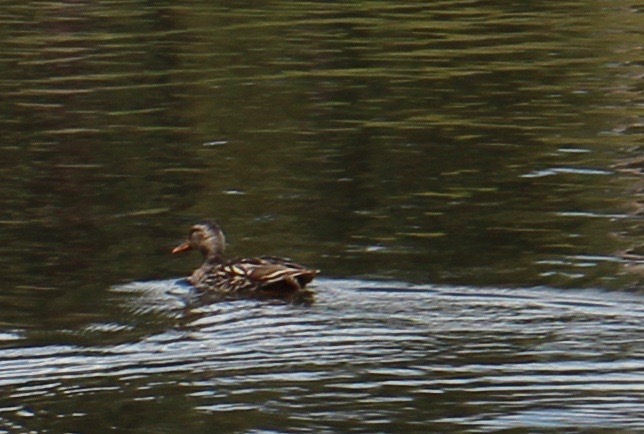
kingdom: Animalia
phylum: Chordata
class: Aves
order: Anseriformes
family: Anatidae
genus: Anas
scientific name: Anas platyrhynchos
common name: Mallard
